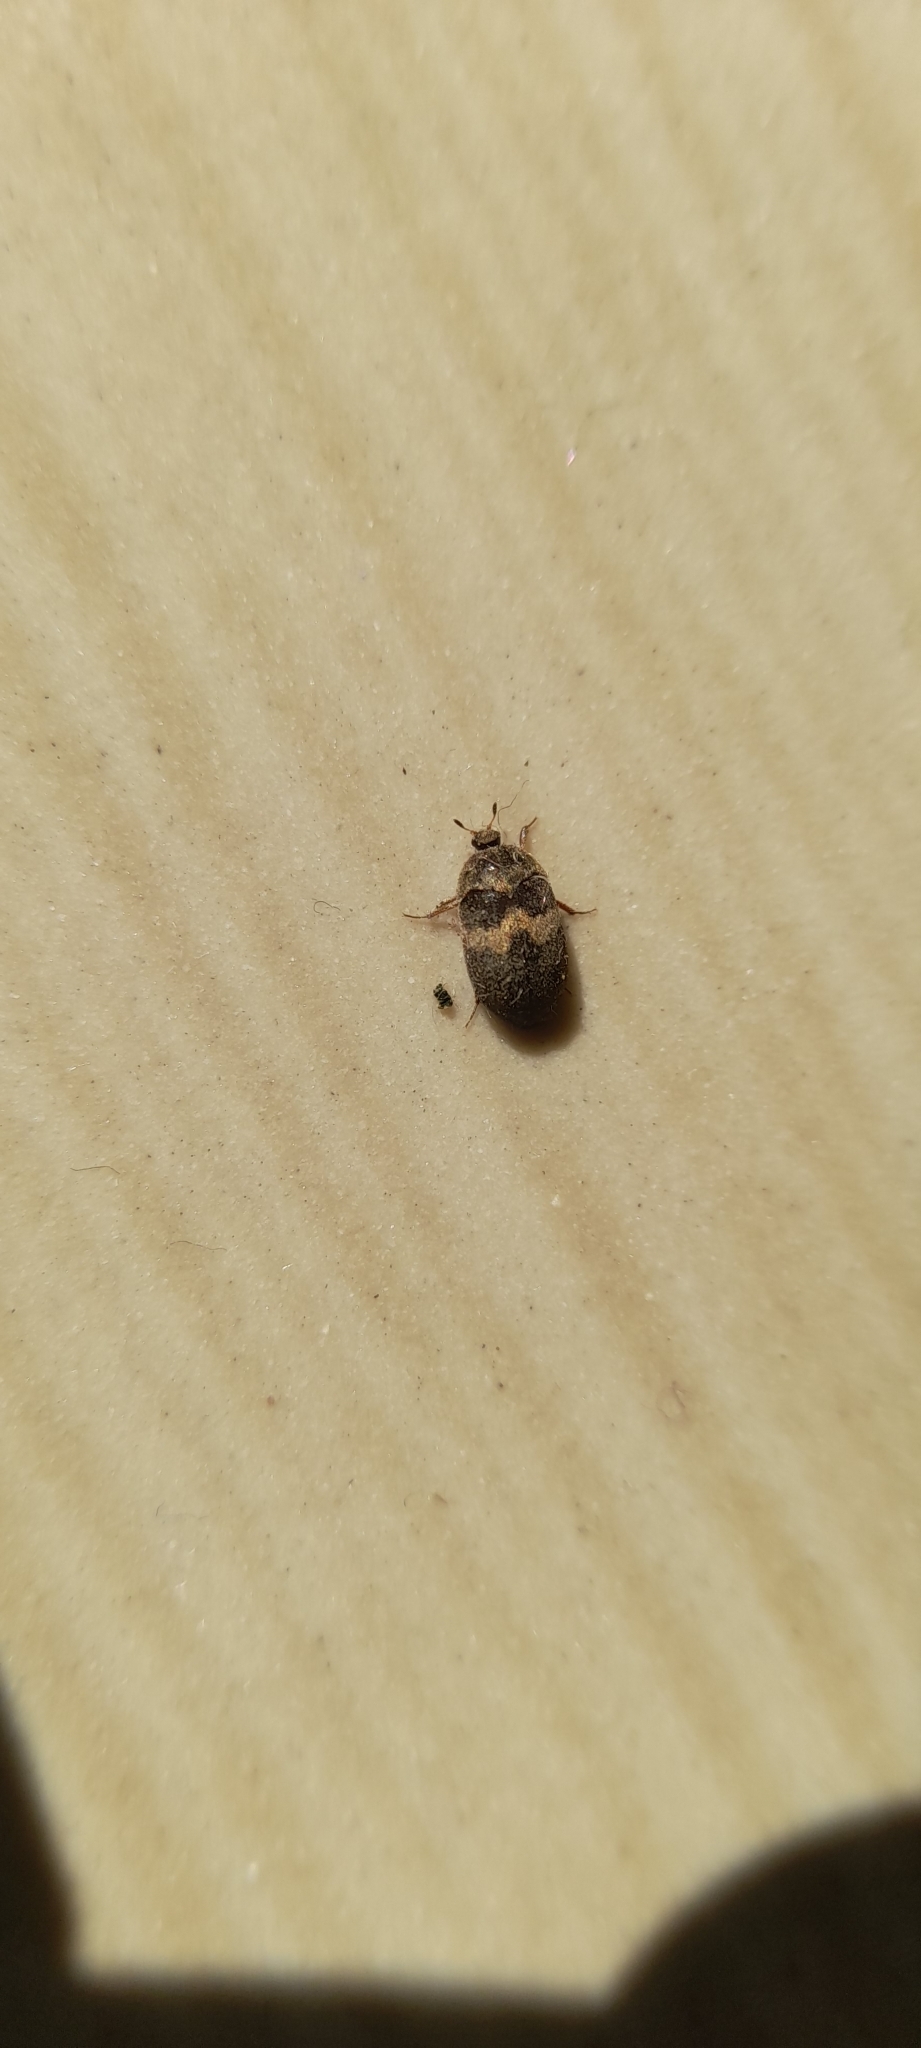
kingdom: Animalia
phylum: Arthropoda
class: Insecta
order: Coleoptera
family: Dermestidae
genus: Attagenus
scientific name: Attagenus fasciatus
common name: Wardrobe beetle
